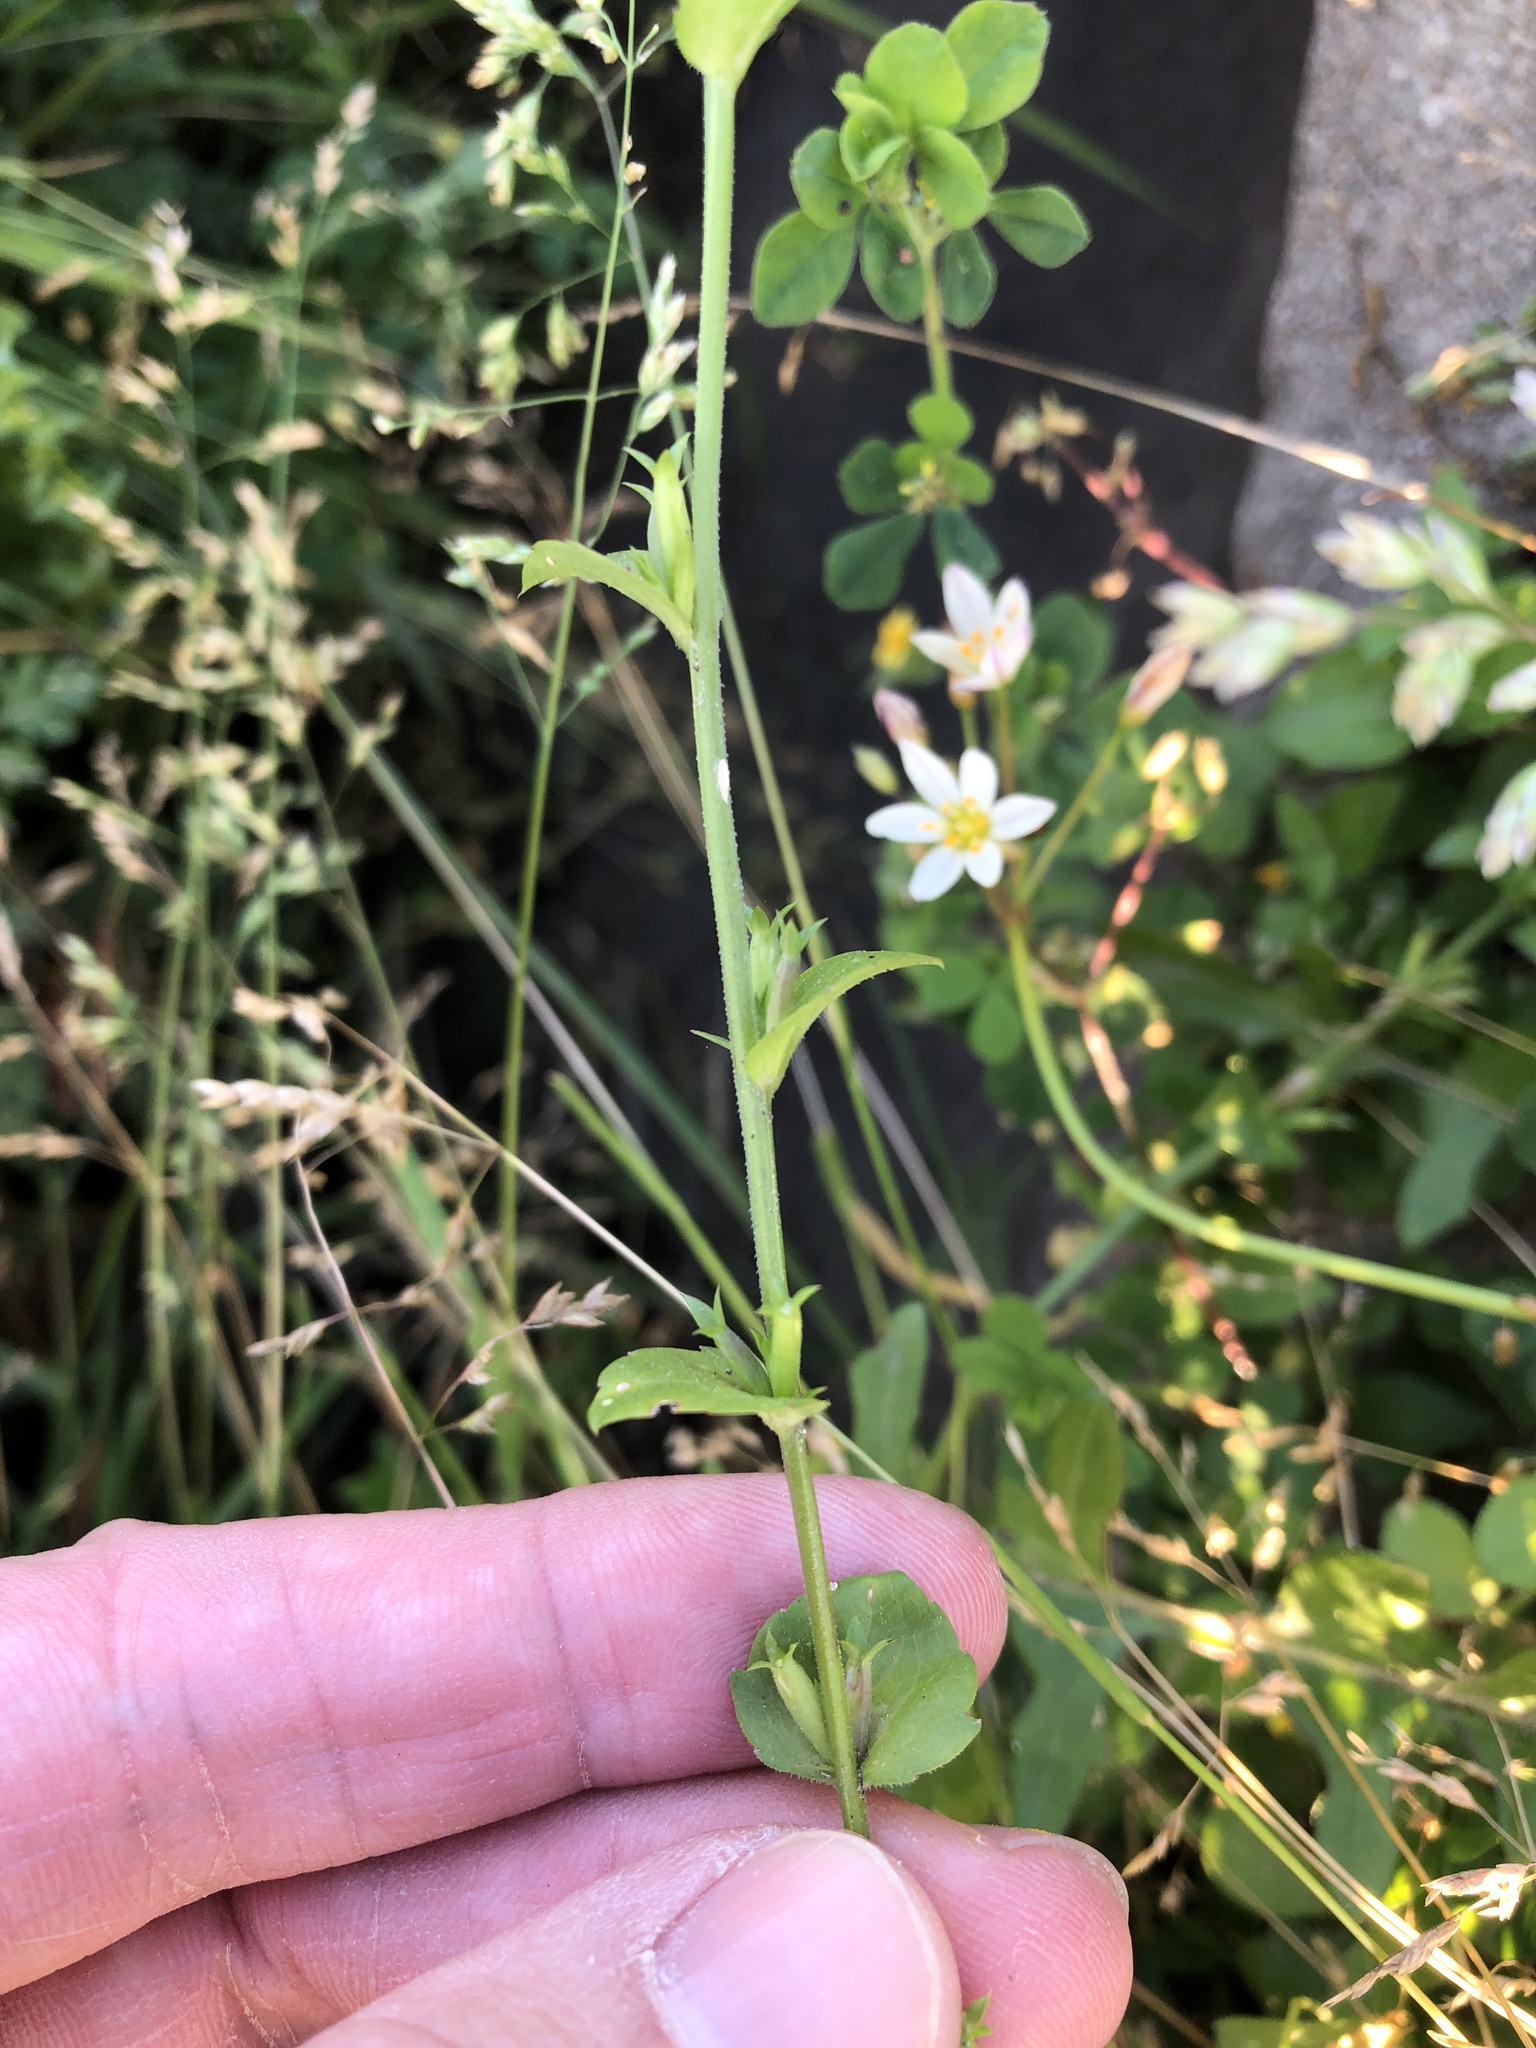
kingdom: Plantae
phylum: Tracheophyta
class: Magnoliopsida
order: Asterales
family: Campanulaceae
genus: Triodanis
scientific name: Triodanis biflora
